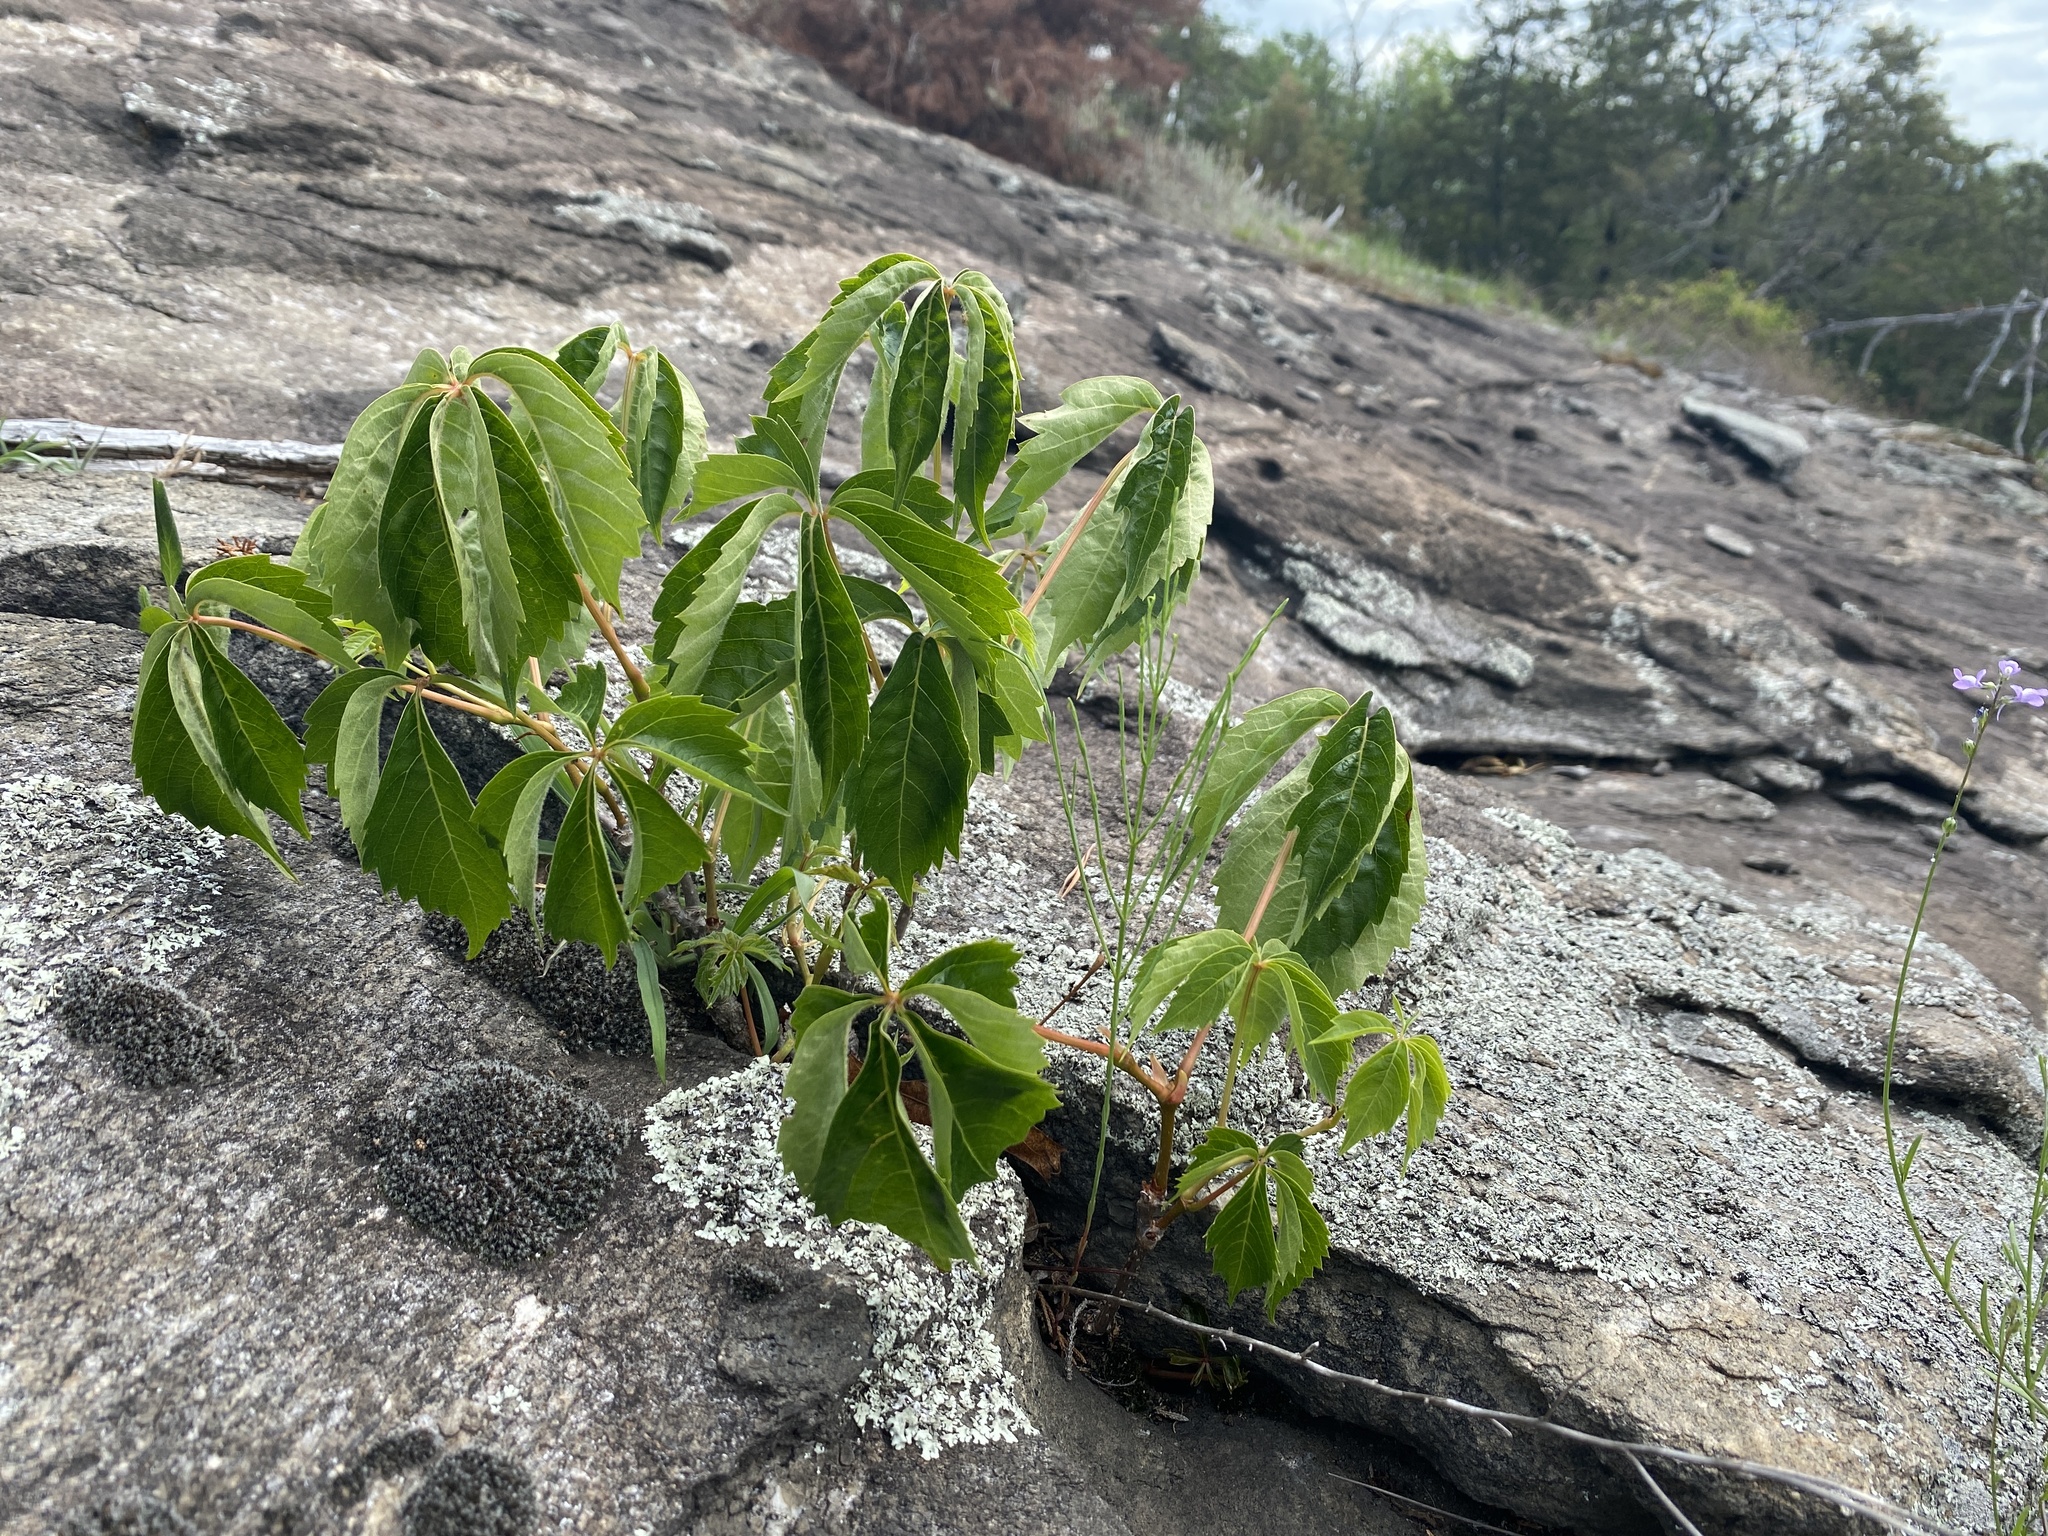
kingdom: Plantae
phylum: Tracheophyta
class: Magnoliopsida
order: Vitales
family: Vitaceae
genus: Parthenocissus
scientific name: Parthenocissus quinquefolia
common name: Virginia-creeper
